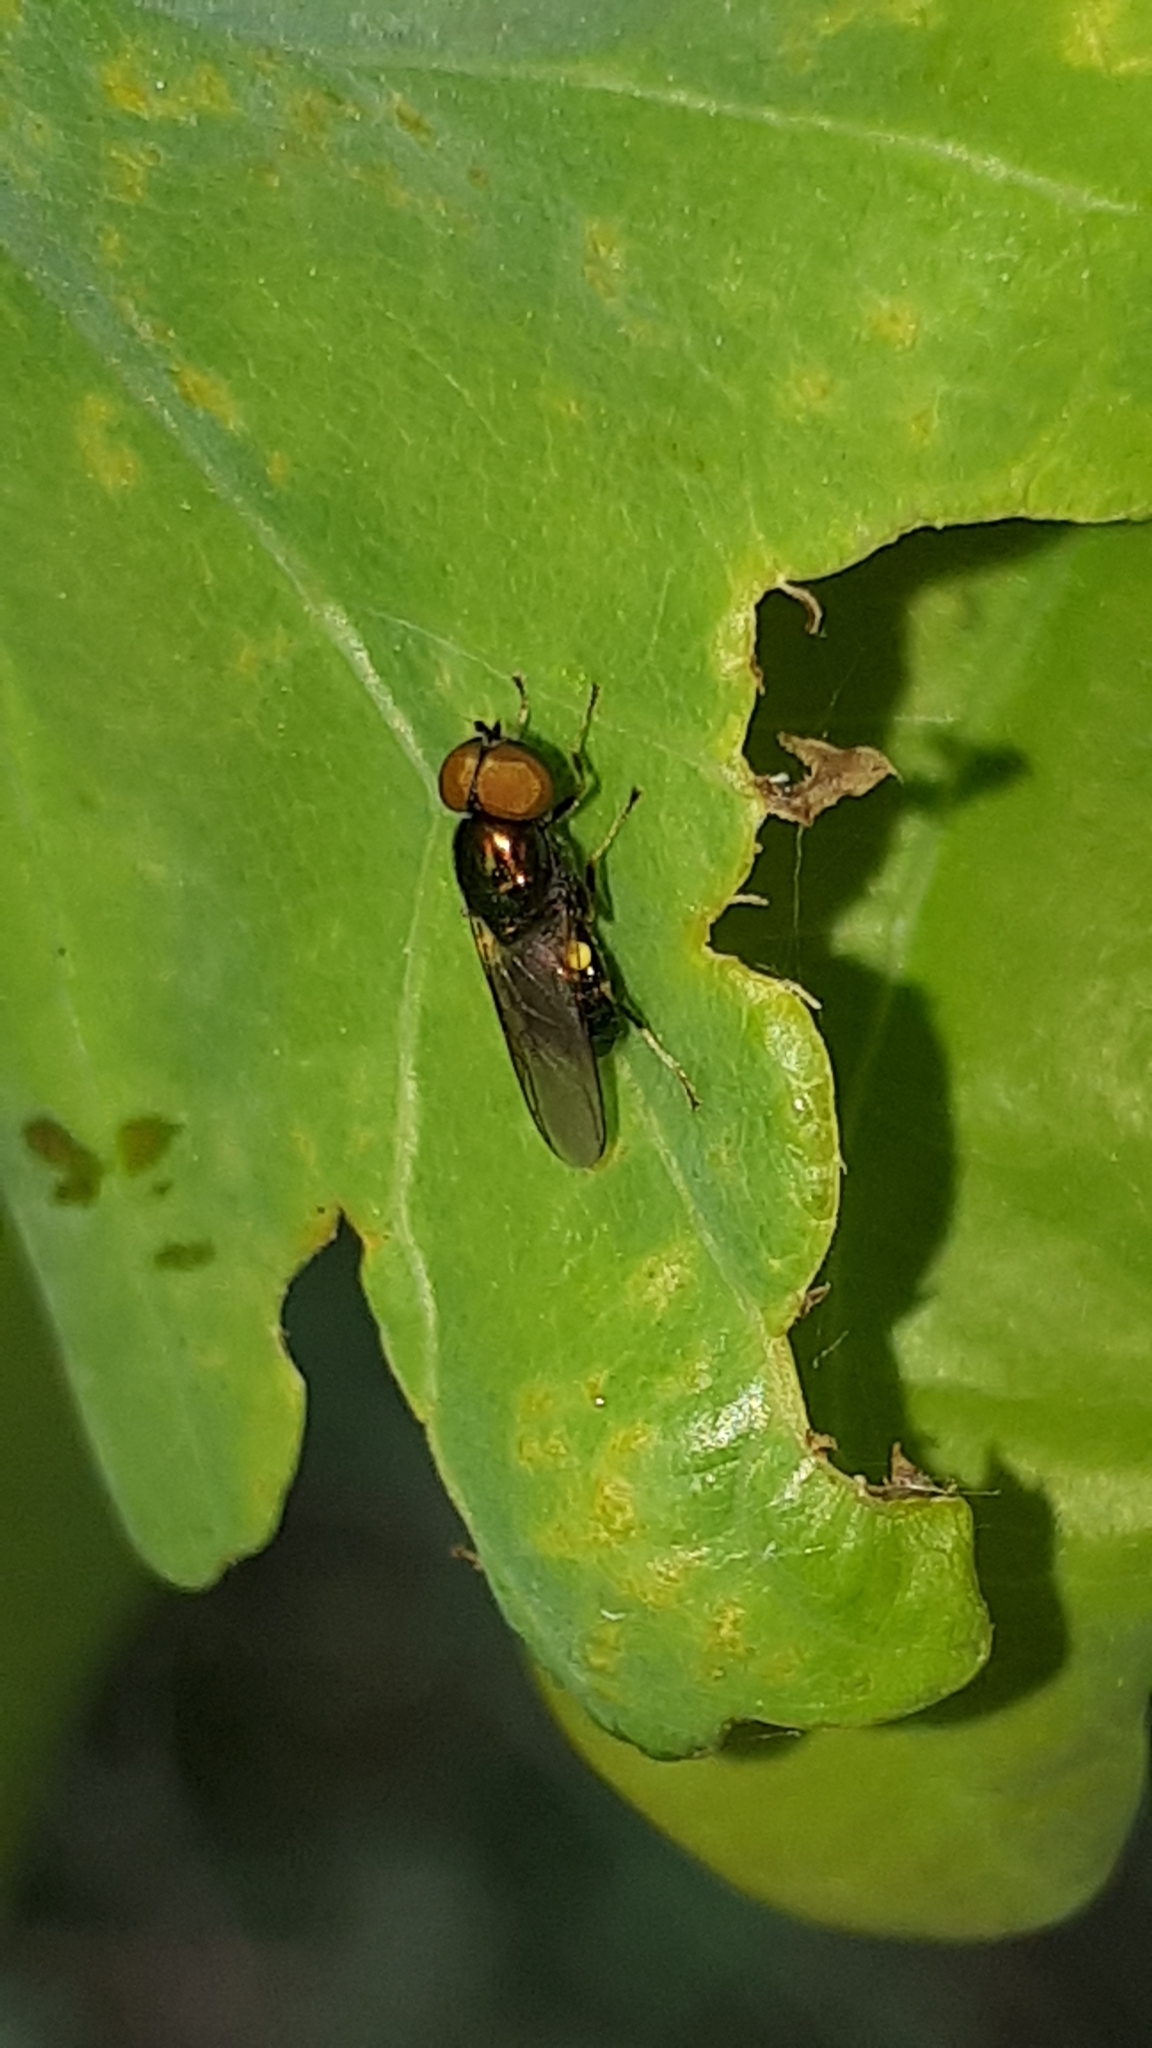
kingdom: Animalia
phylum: Arthropoda
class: Insecta
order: Diptera
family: Stratiomyidae
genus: Microchrysa
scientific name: Microchrysa polita
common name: Black-horned gem
